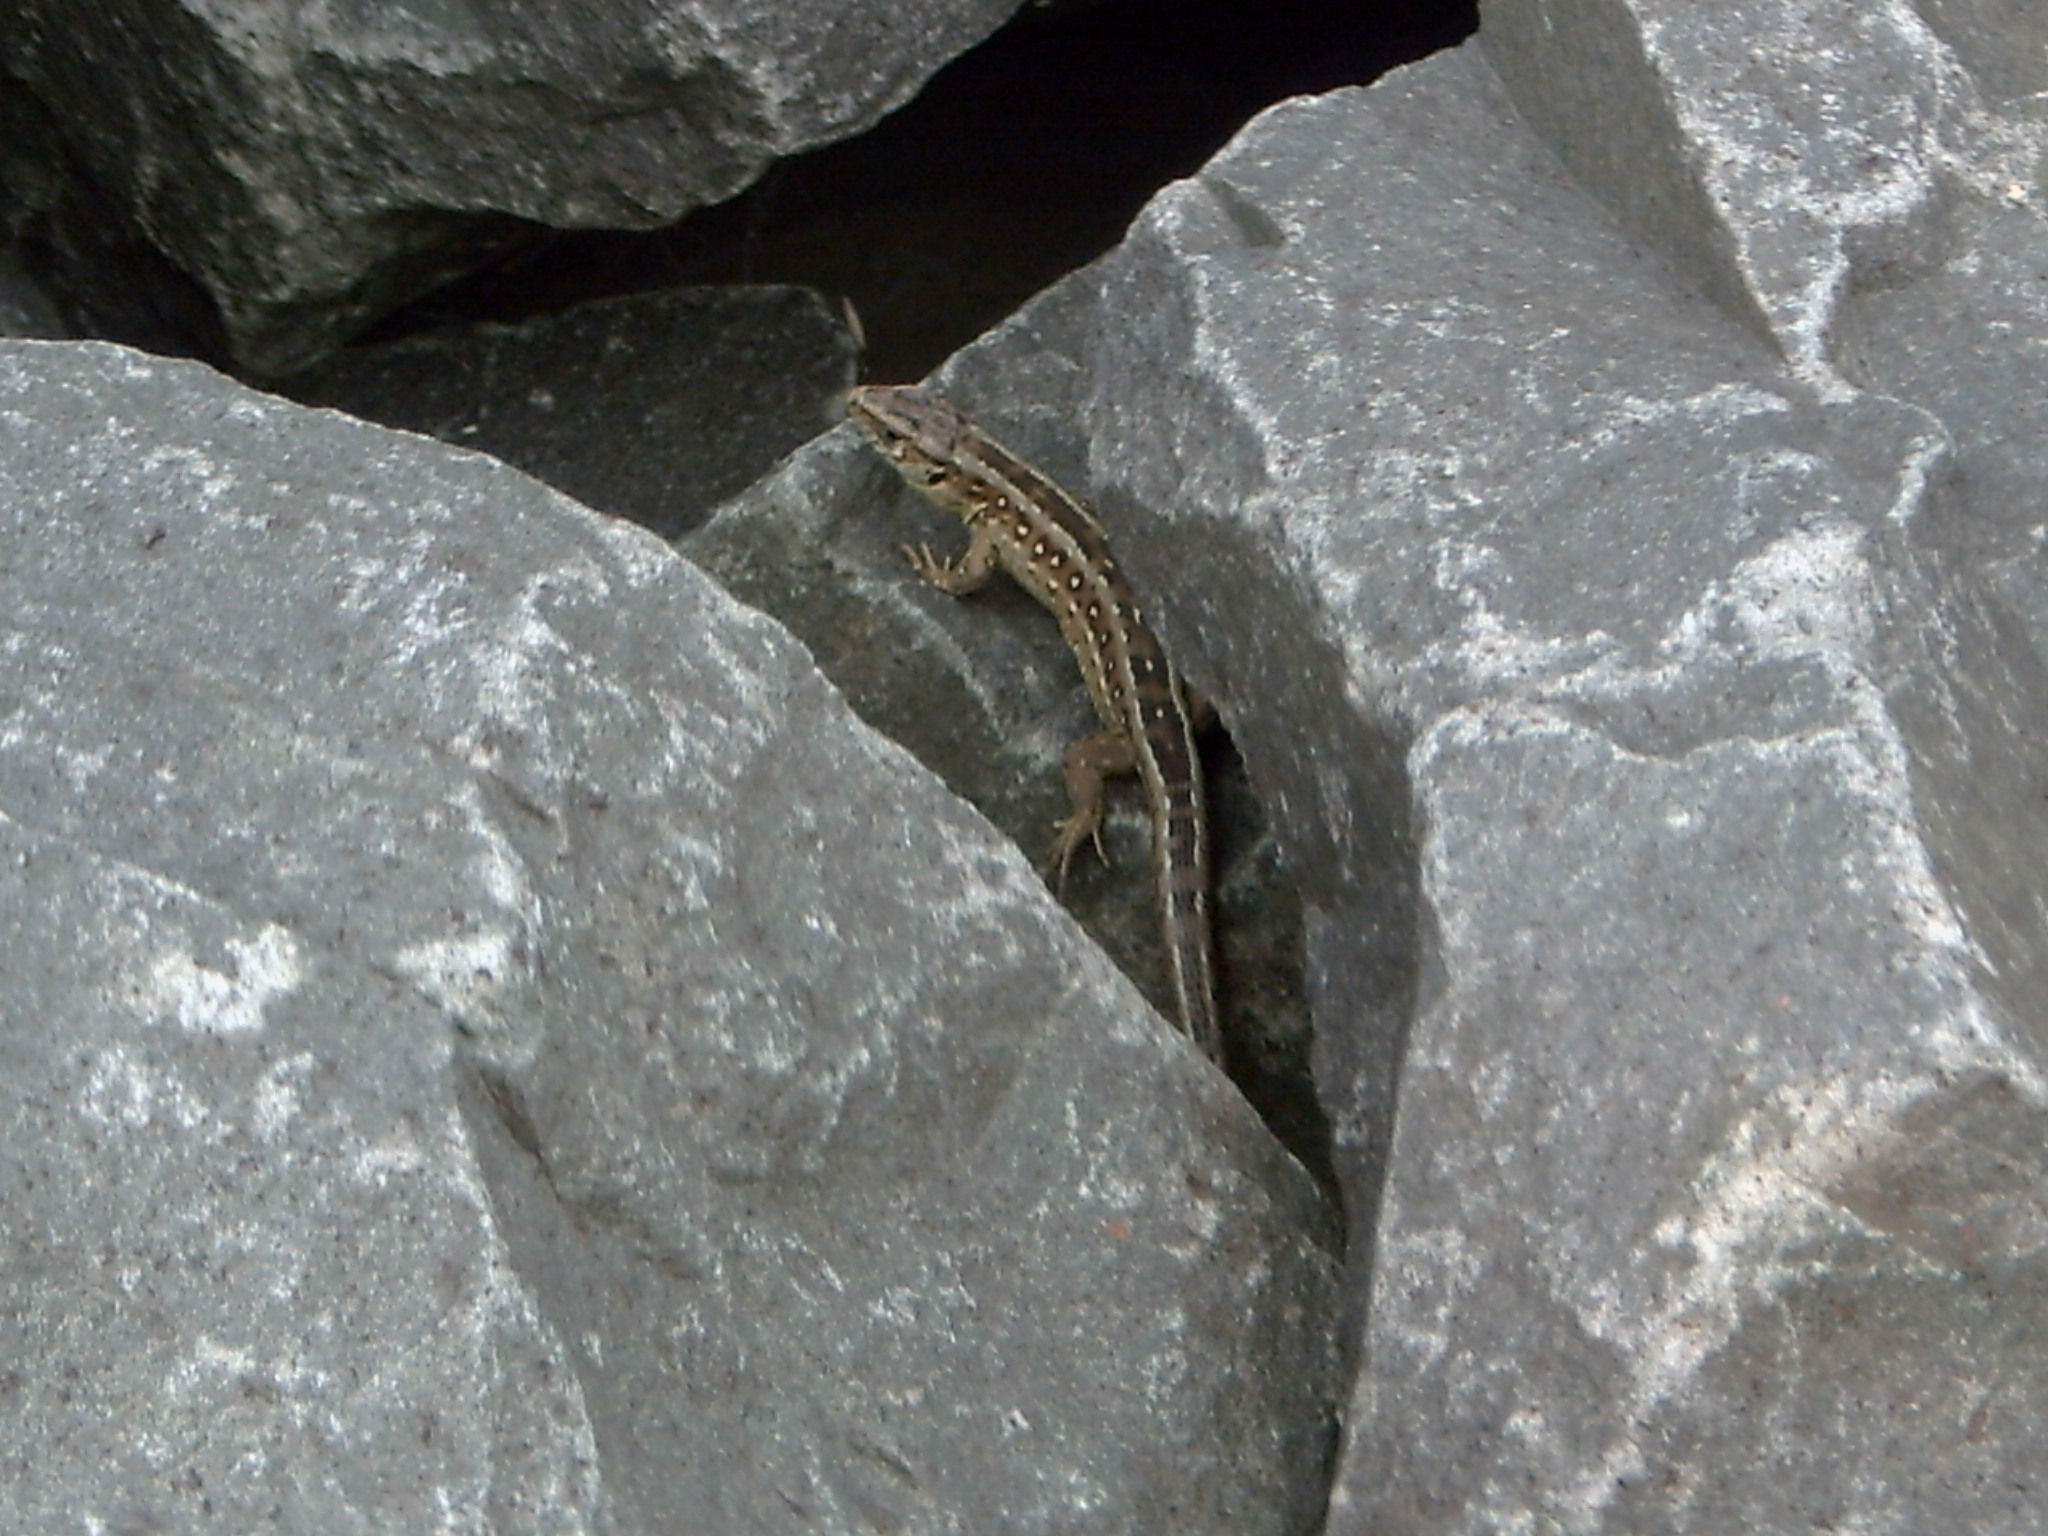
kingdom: Animalia
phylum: Chordata
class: Squamata
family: Lacertidae
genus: Lacerta
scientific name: Lacerta agilis
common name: Sand lizard
